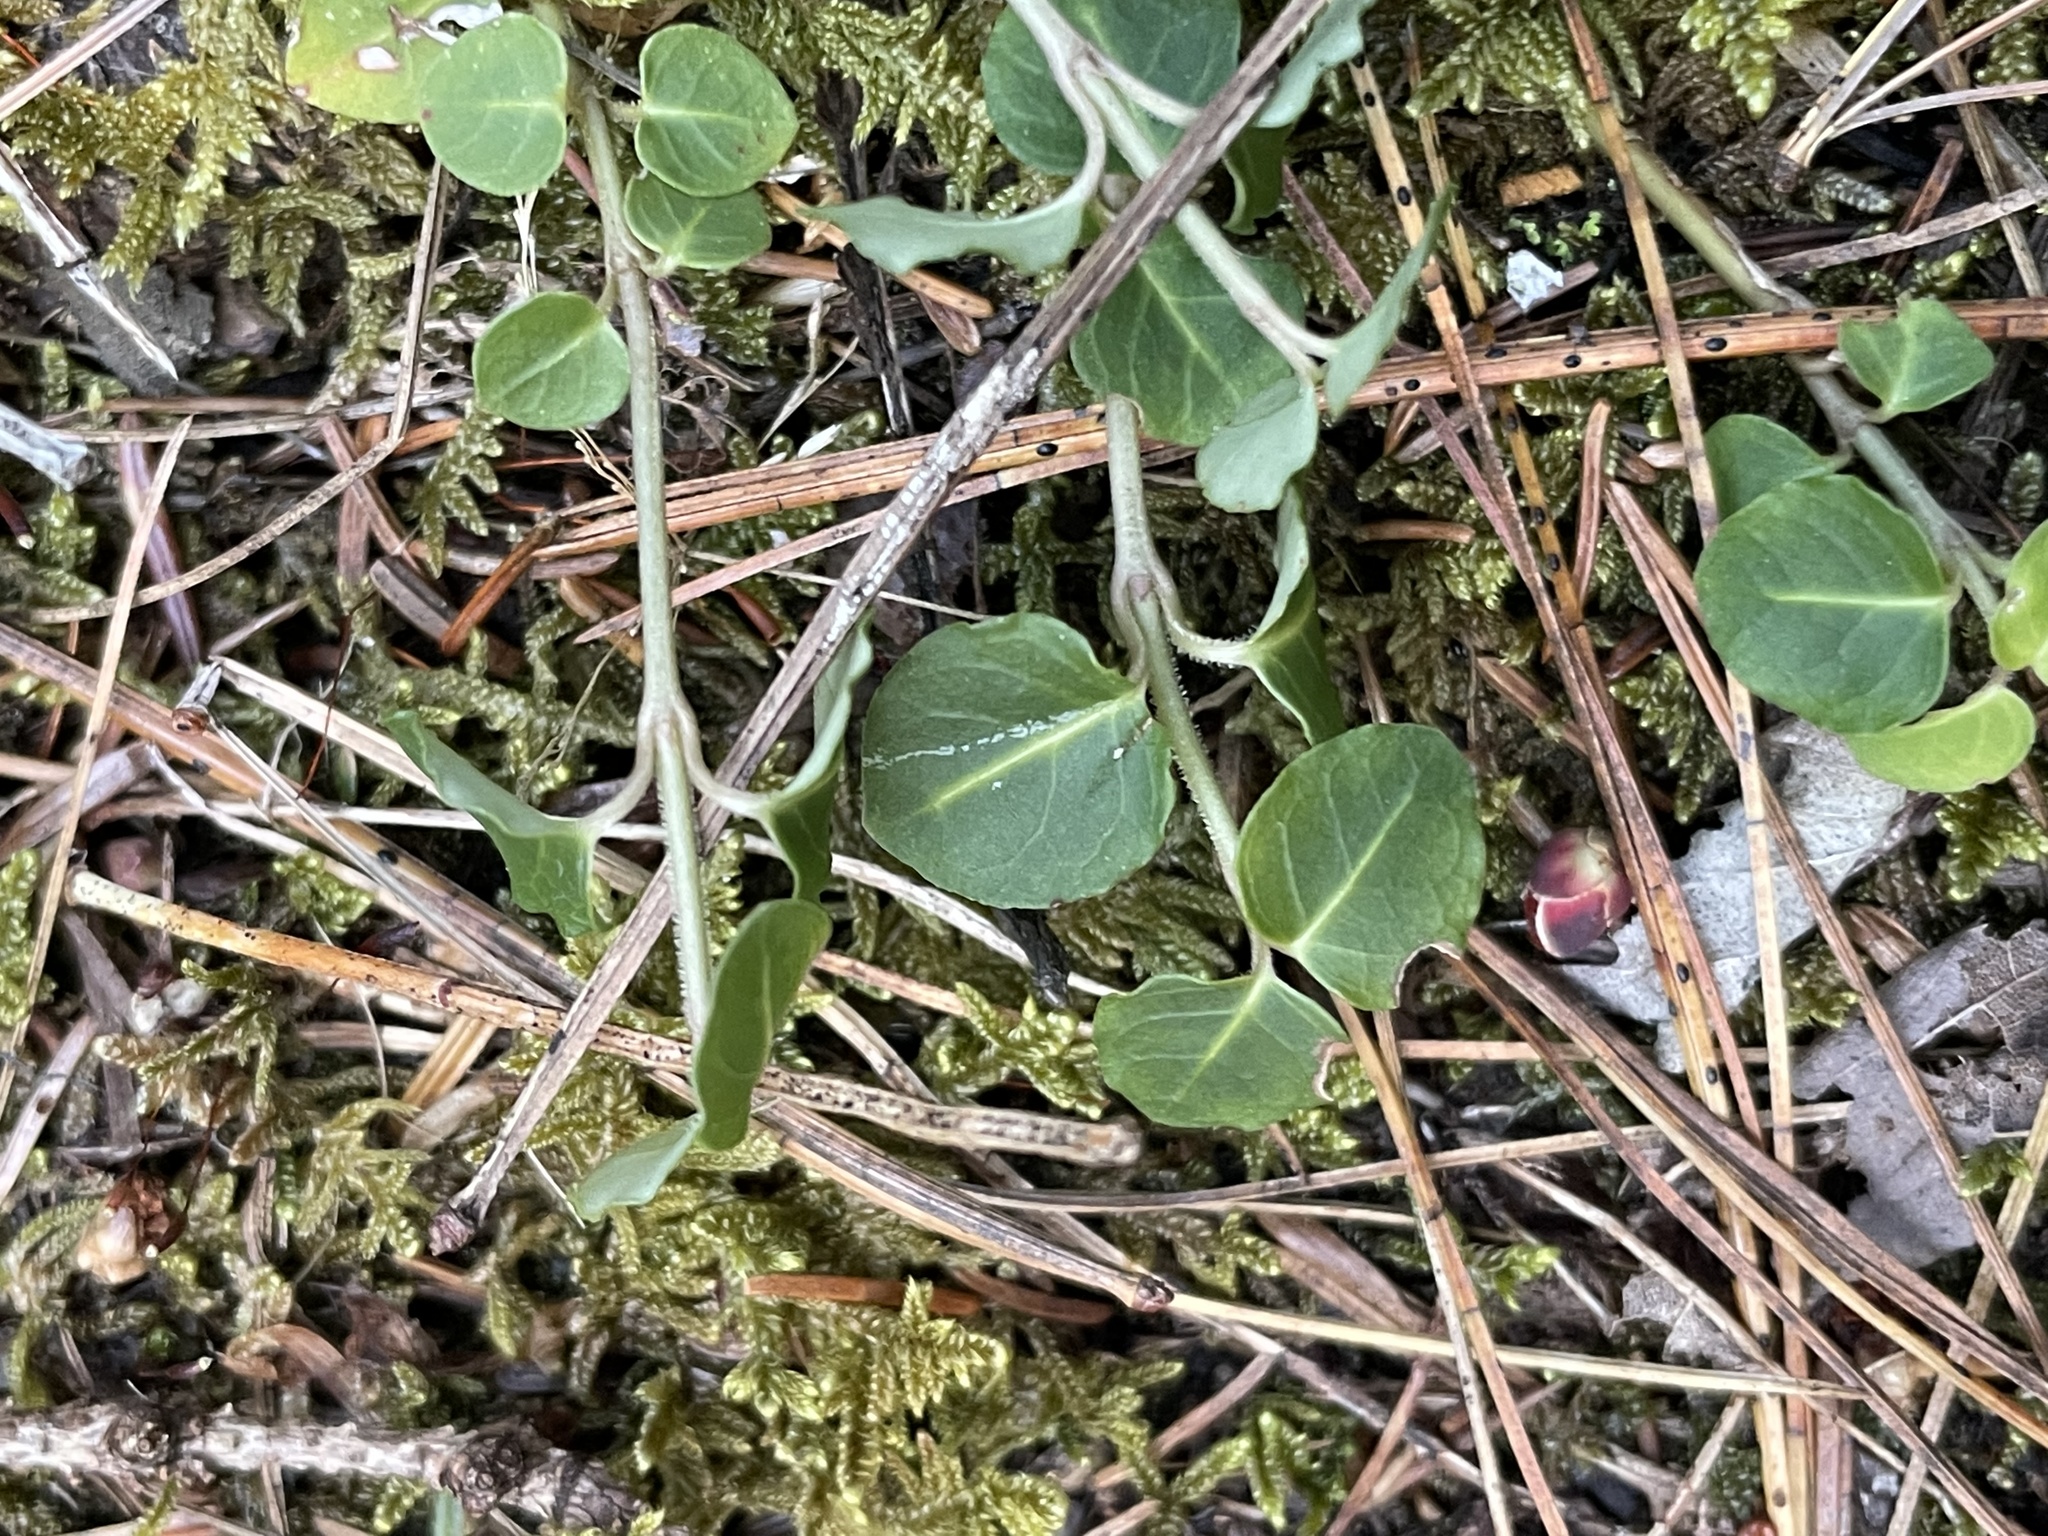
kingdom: Plantae
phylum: Tracheophyta
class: Magnoliopsida
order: Gentianales
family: Rubiaceae
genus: Mitchella
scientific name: Mitchella repens
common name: Partridge-berry
